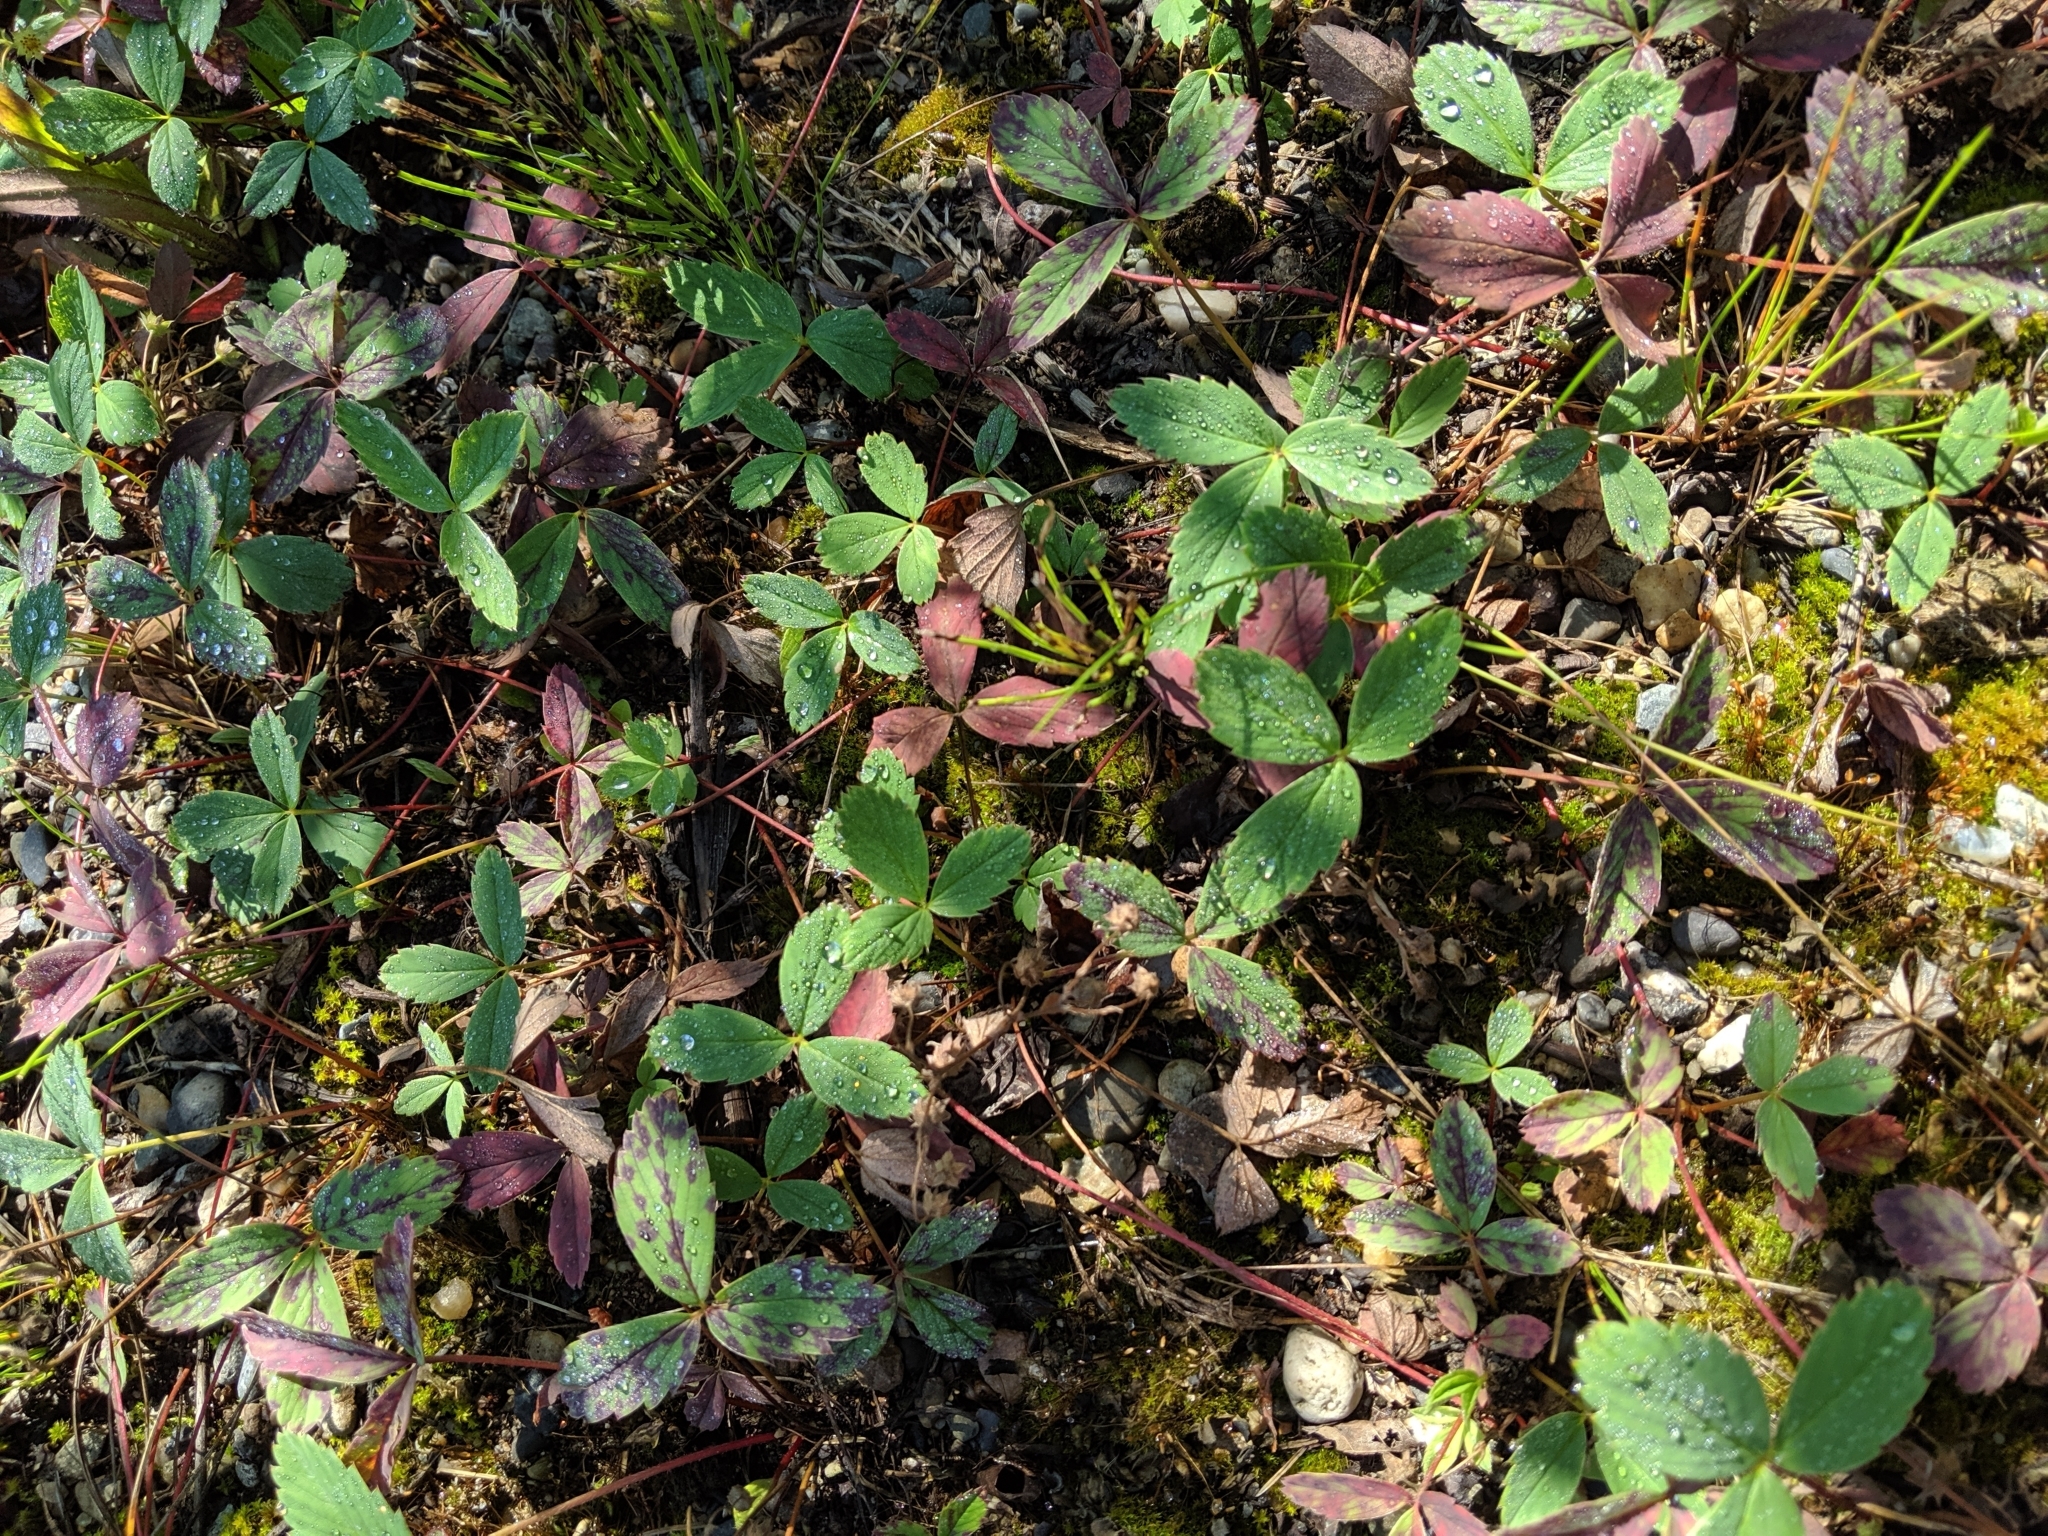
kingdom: Plantae
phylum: Tracheophyta
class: Magnoliopsida
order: Rosales
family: Rosaceae
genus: Fragaria
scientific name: Fragaria virginiana
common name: Thickleaved wild strawberry
